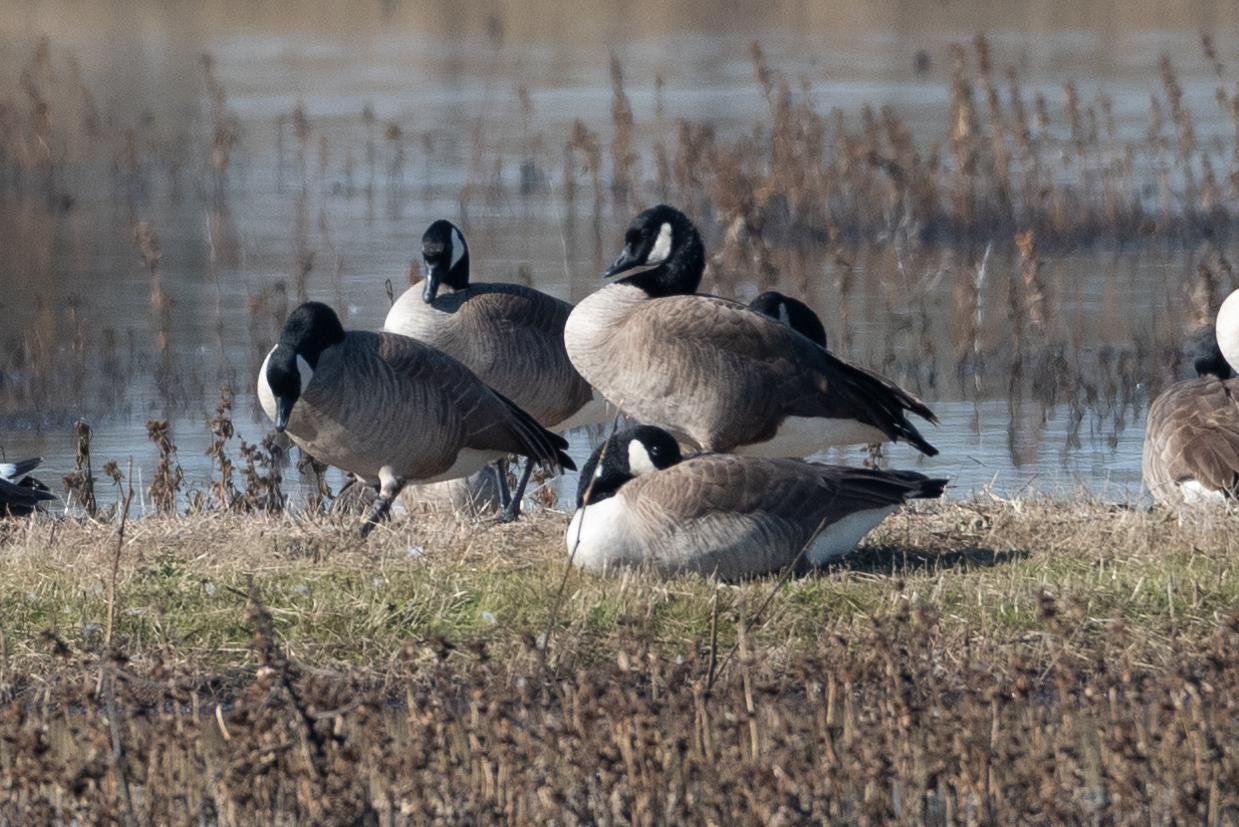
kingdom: Animalia
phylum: Chordata
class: Aves
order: Anseriformes
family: Anatidae
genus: Branta
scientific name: Branta canadensis
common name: Canada goose
